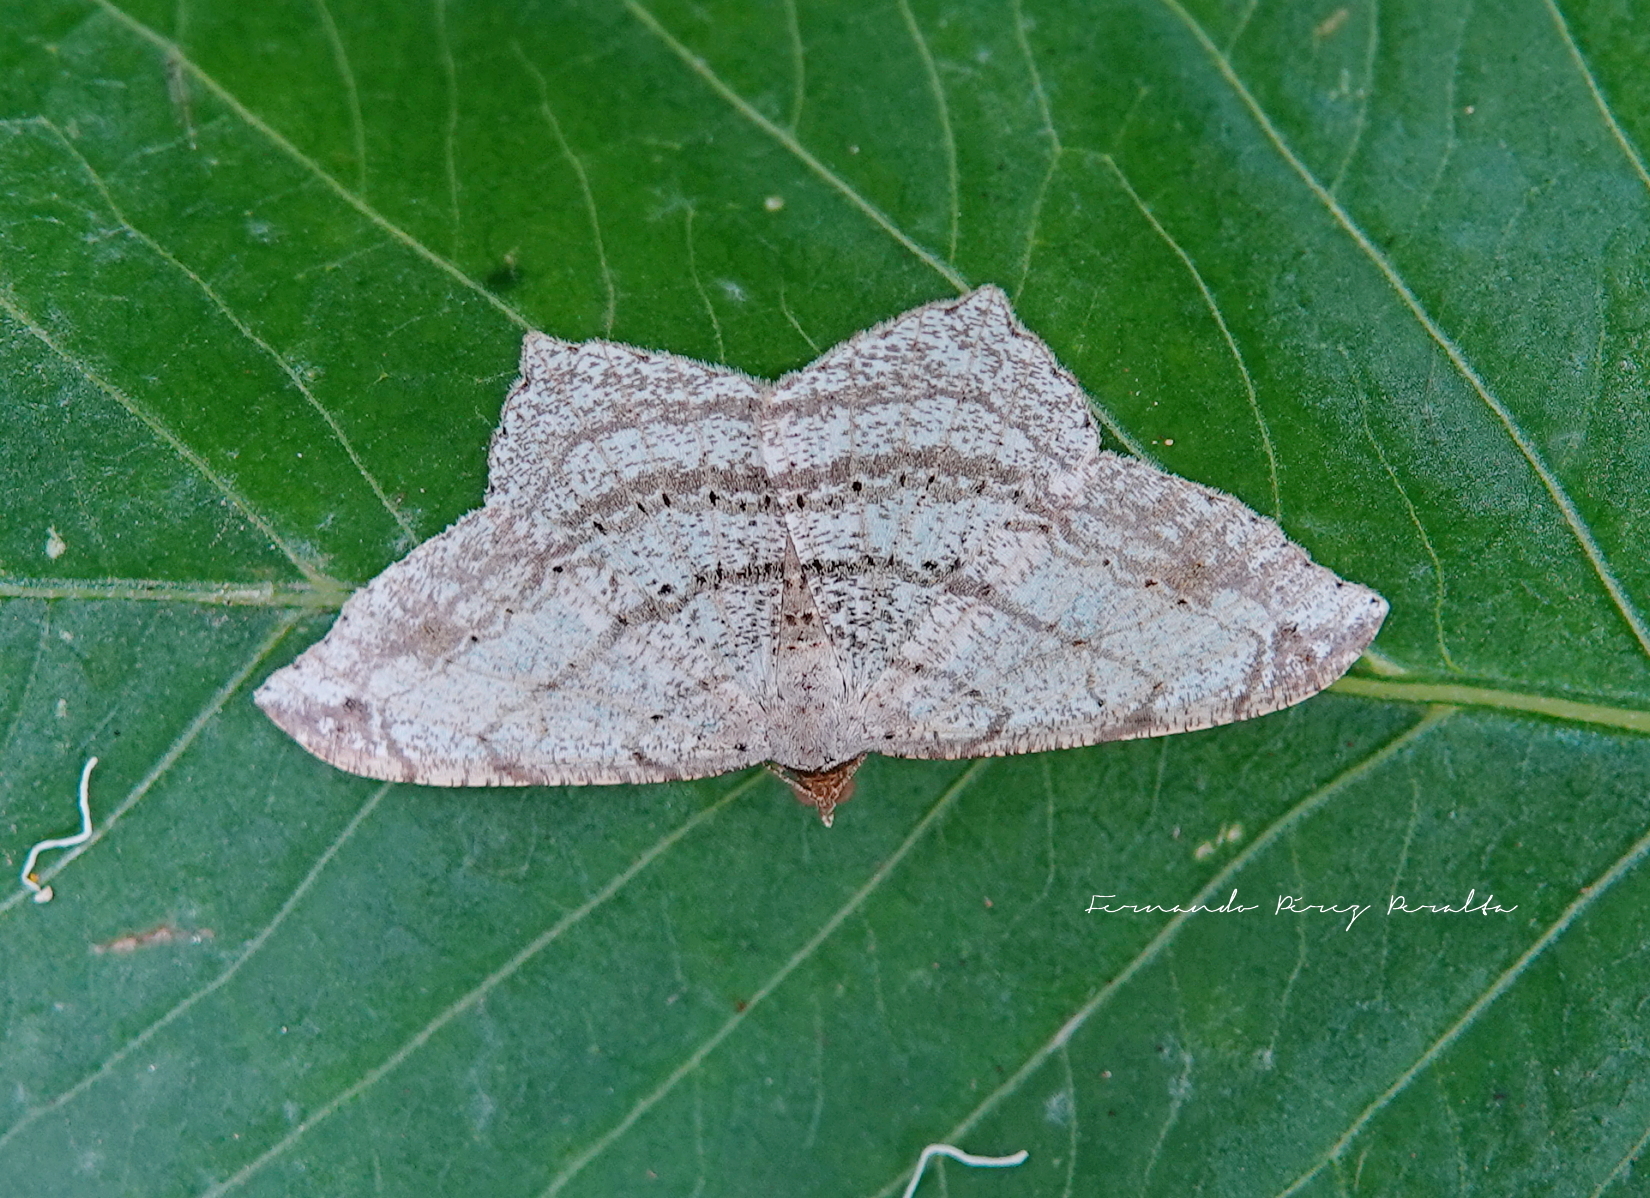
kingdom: Animalia
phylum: Arthropoda
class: Insecta
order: Lepidoptera
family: Geometridae
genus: Macaria
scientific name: Macaria abydata
